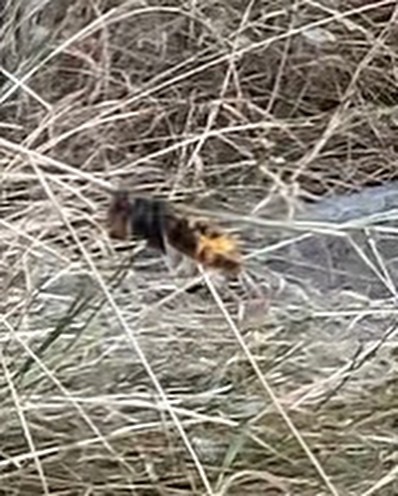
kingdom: Animalia
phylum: Arthropoda
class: Insecta
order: Hymenoptera
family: Vespidae
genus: Vespa
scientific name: Vespa velutina
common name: Asian hornet
